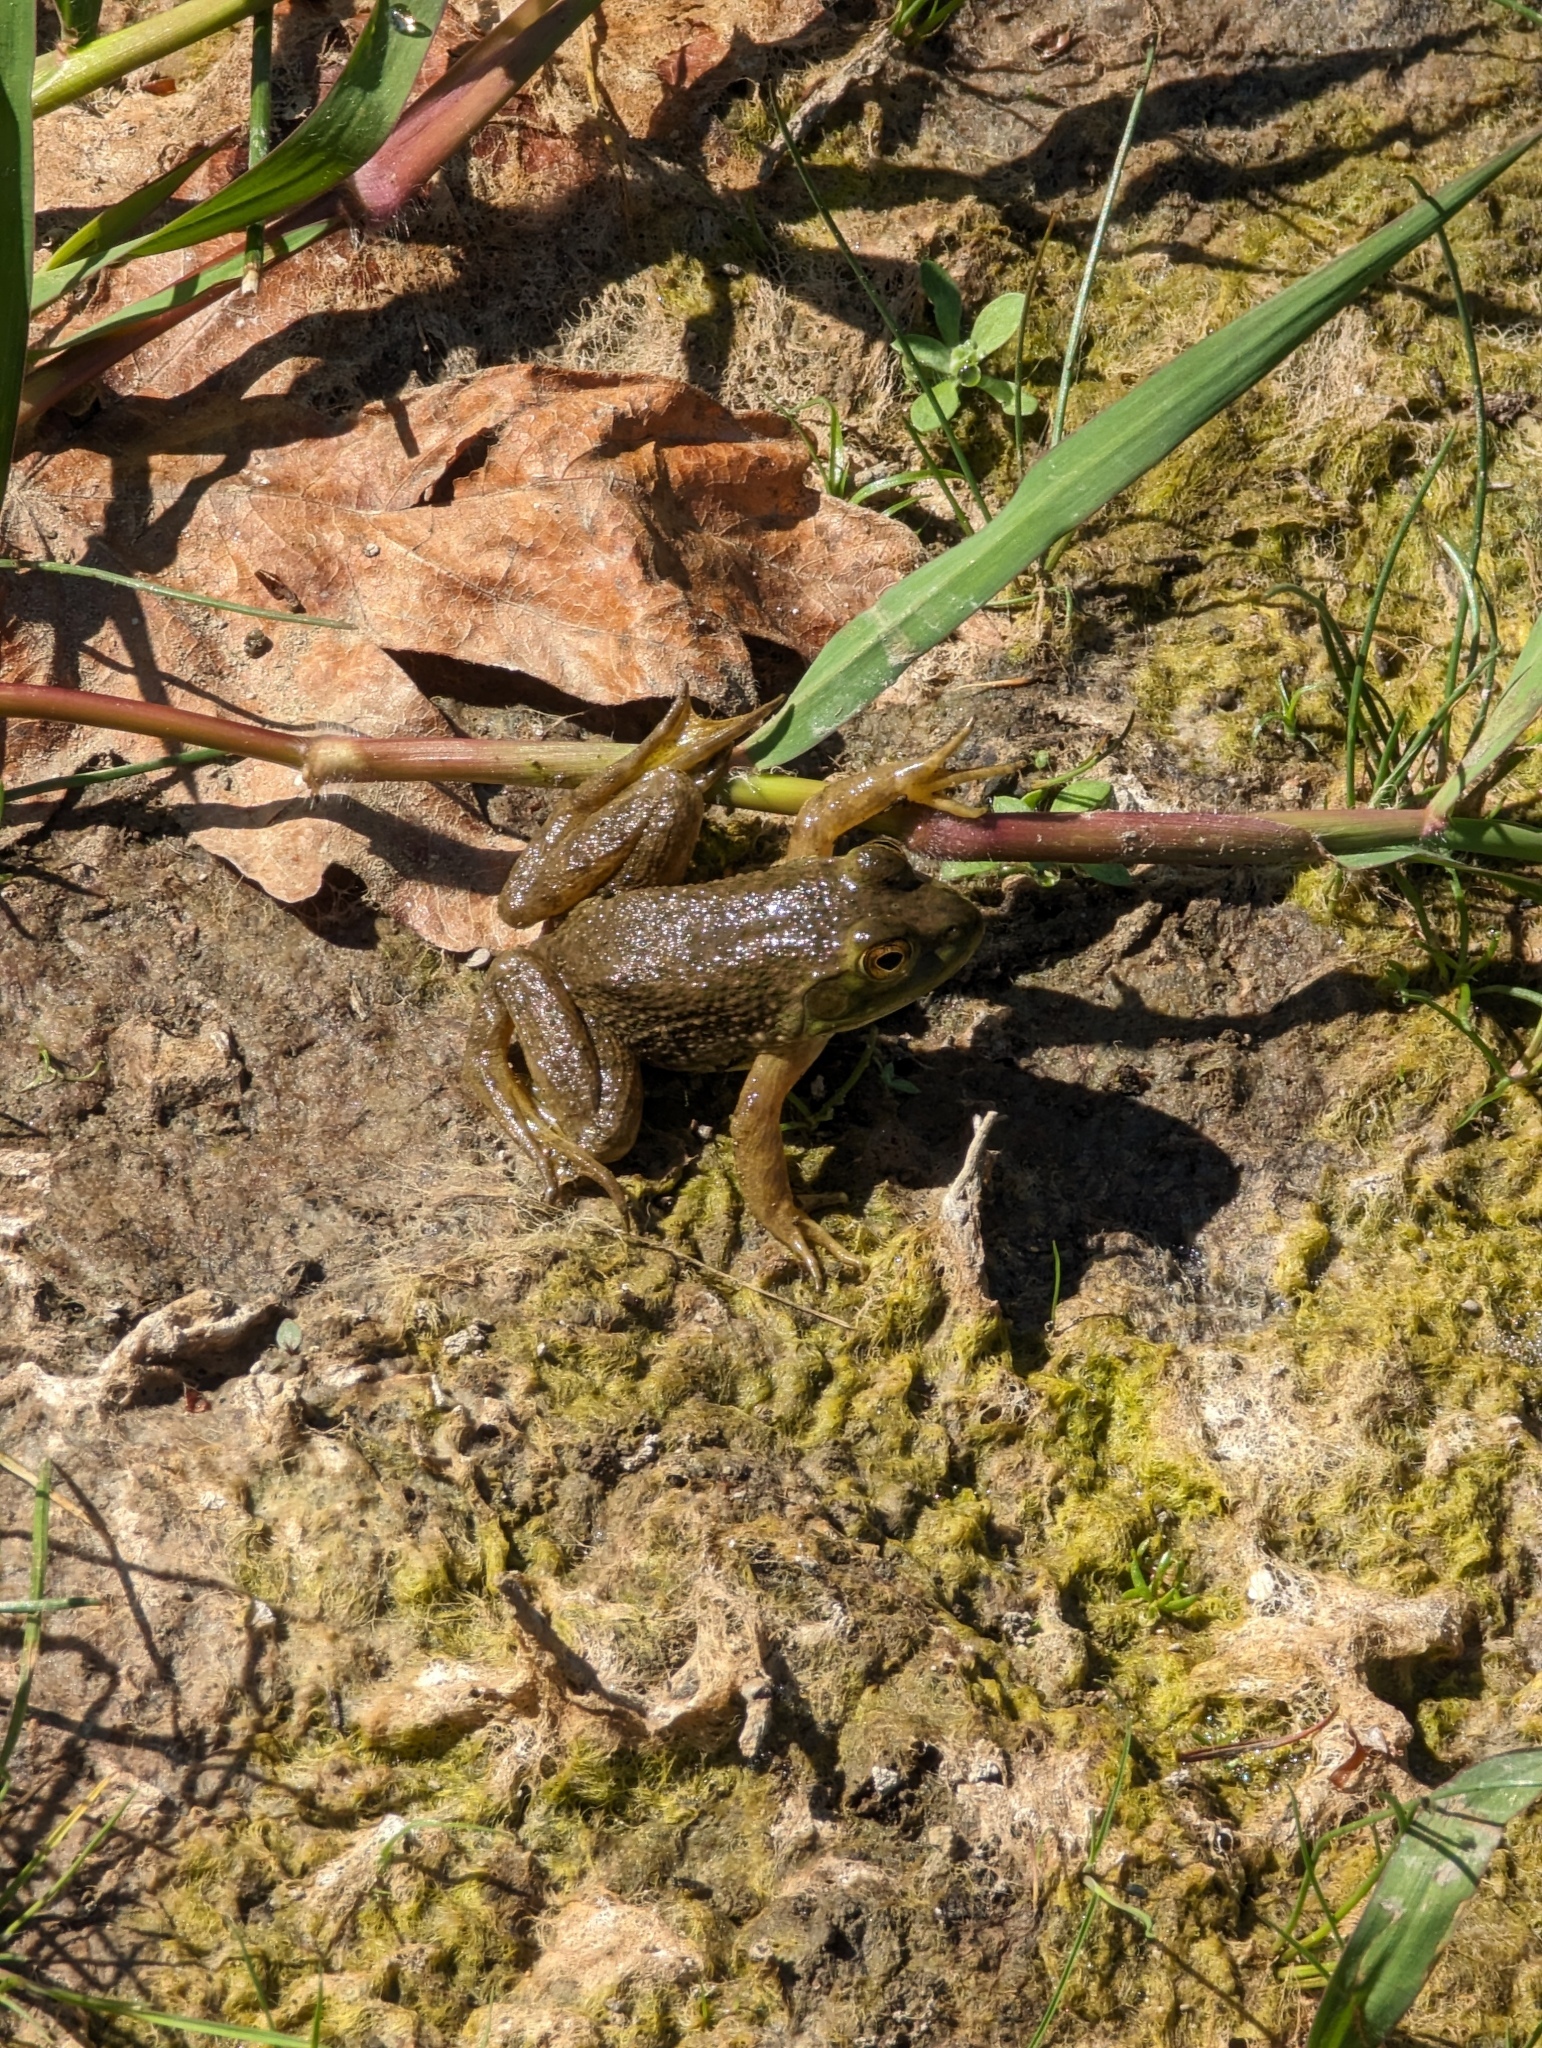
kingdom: Animalia
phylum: Chordata
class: Amphibia
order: Anura
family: Ranidae
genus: Lithobates
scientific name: Lithobates catesbeianus
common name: American bullfrog
